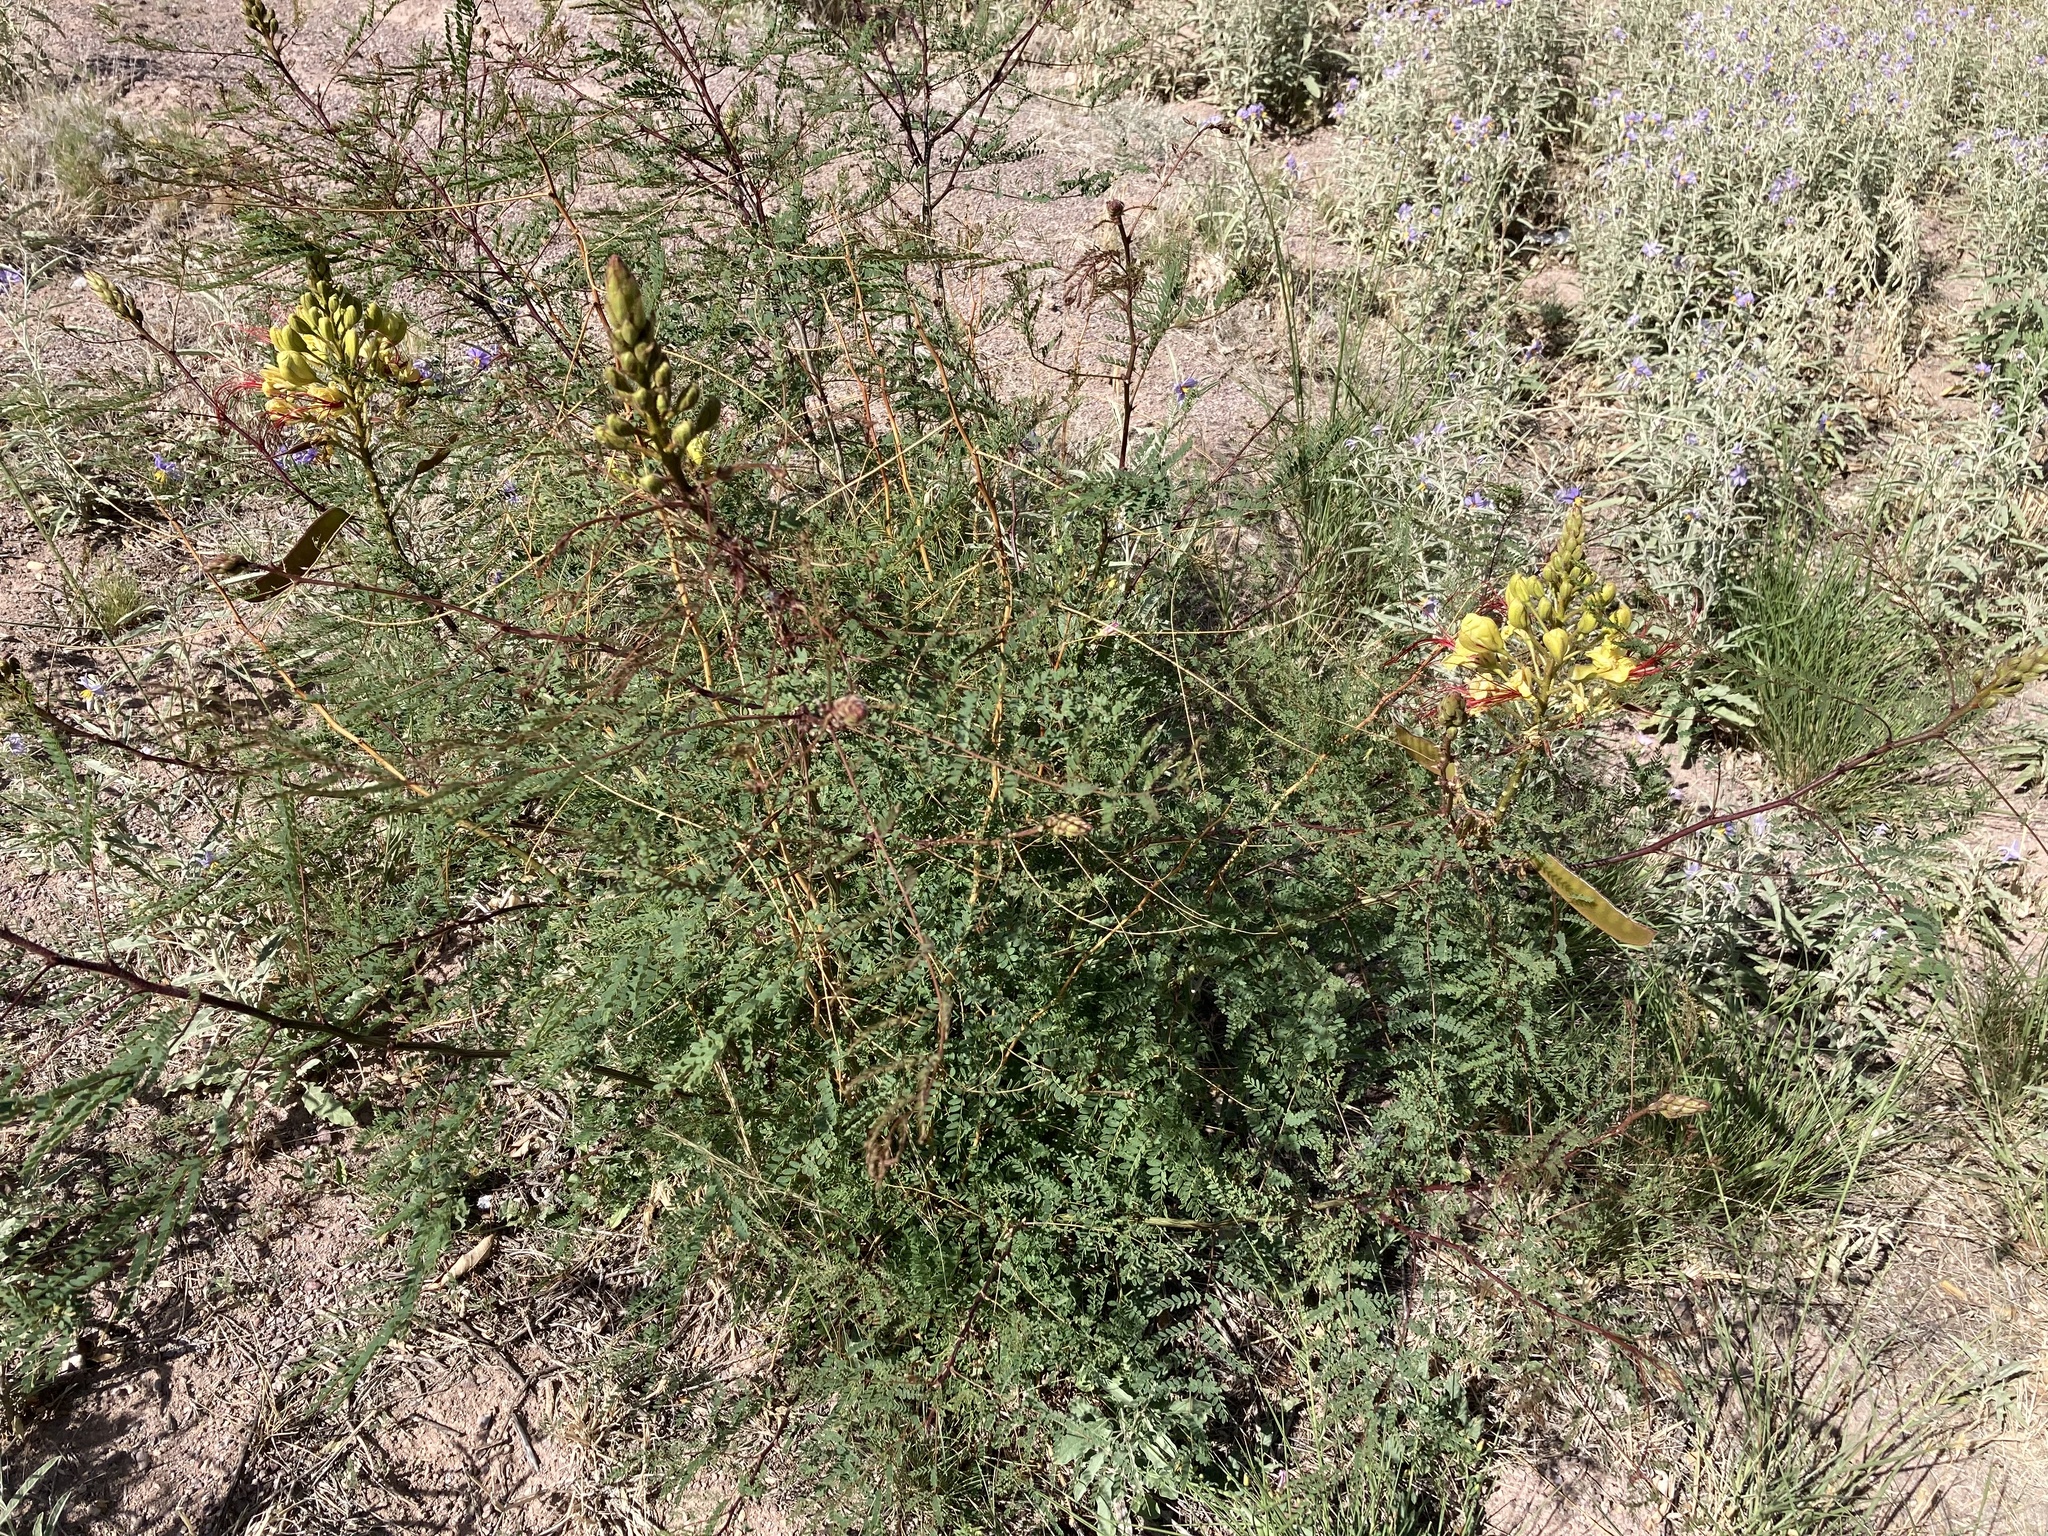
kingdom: Plantae
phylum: Tracheophyta
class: Magnoliopsida
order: Fabales
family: Fabaceae
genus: Erythrostemon
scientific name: Erythrostemon gilliesii
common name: Bird-of-paradise shrub
